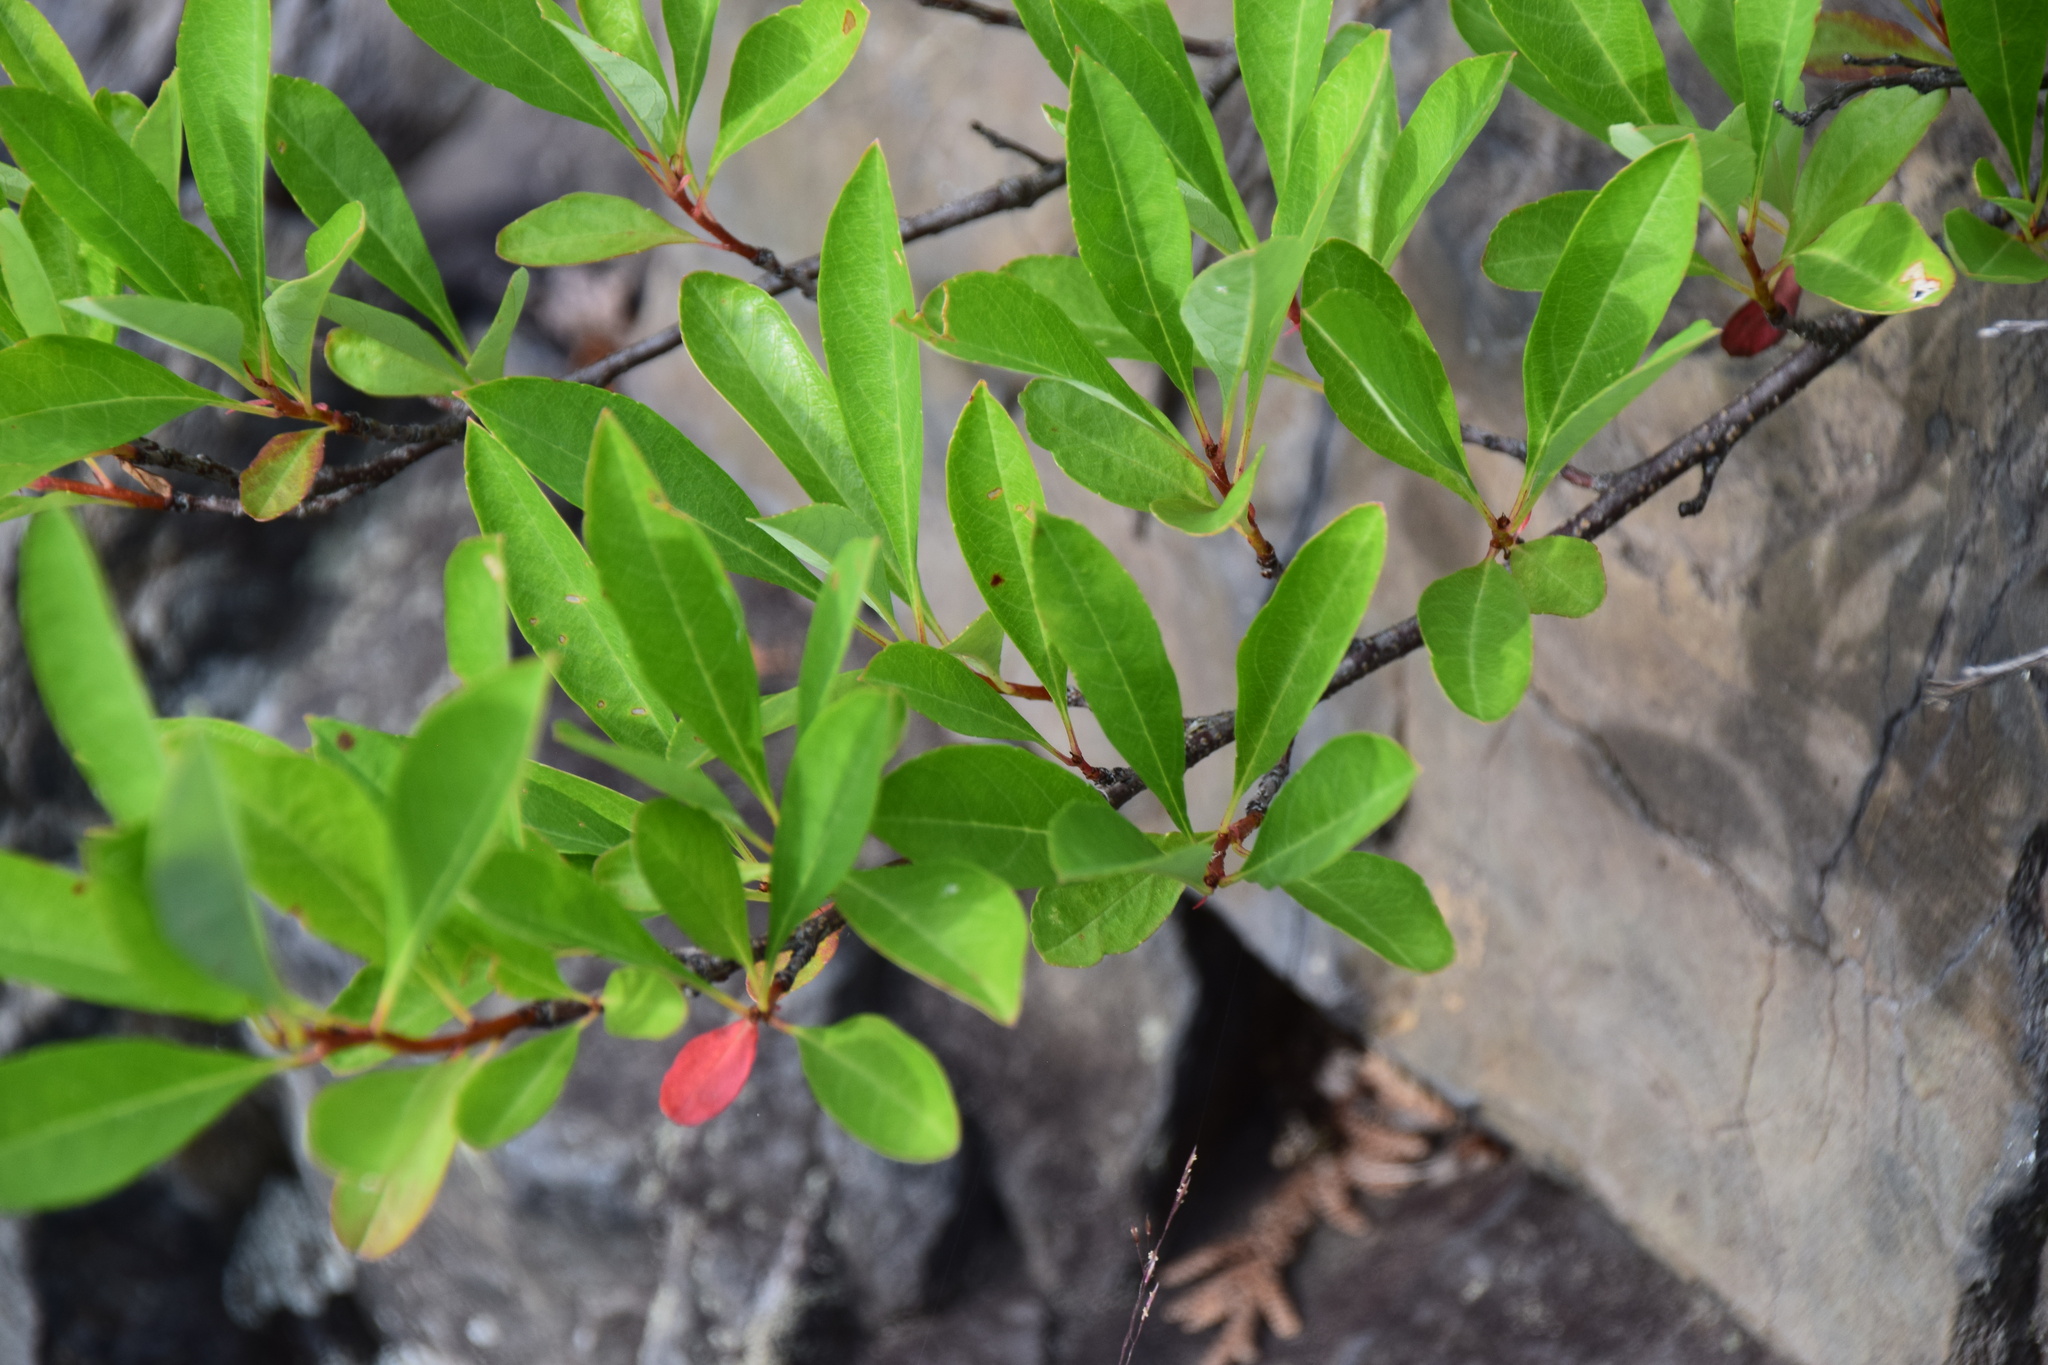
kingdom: Plantae
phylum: Tracheophyta
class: Magnoliopsida
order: Rosales
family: Rosaceae
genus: Prunus
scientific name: Prunus pumila
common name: Dwarf cherry
